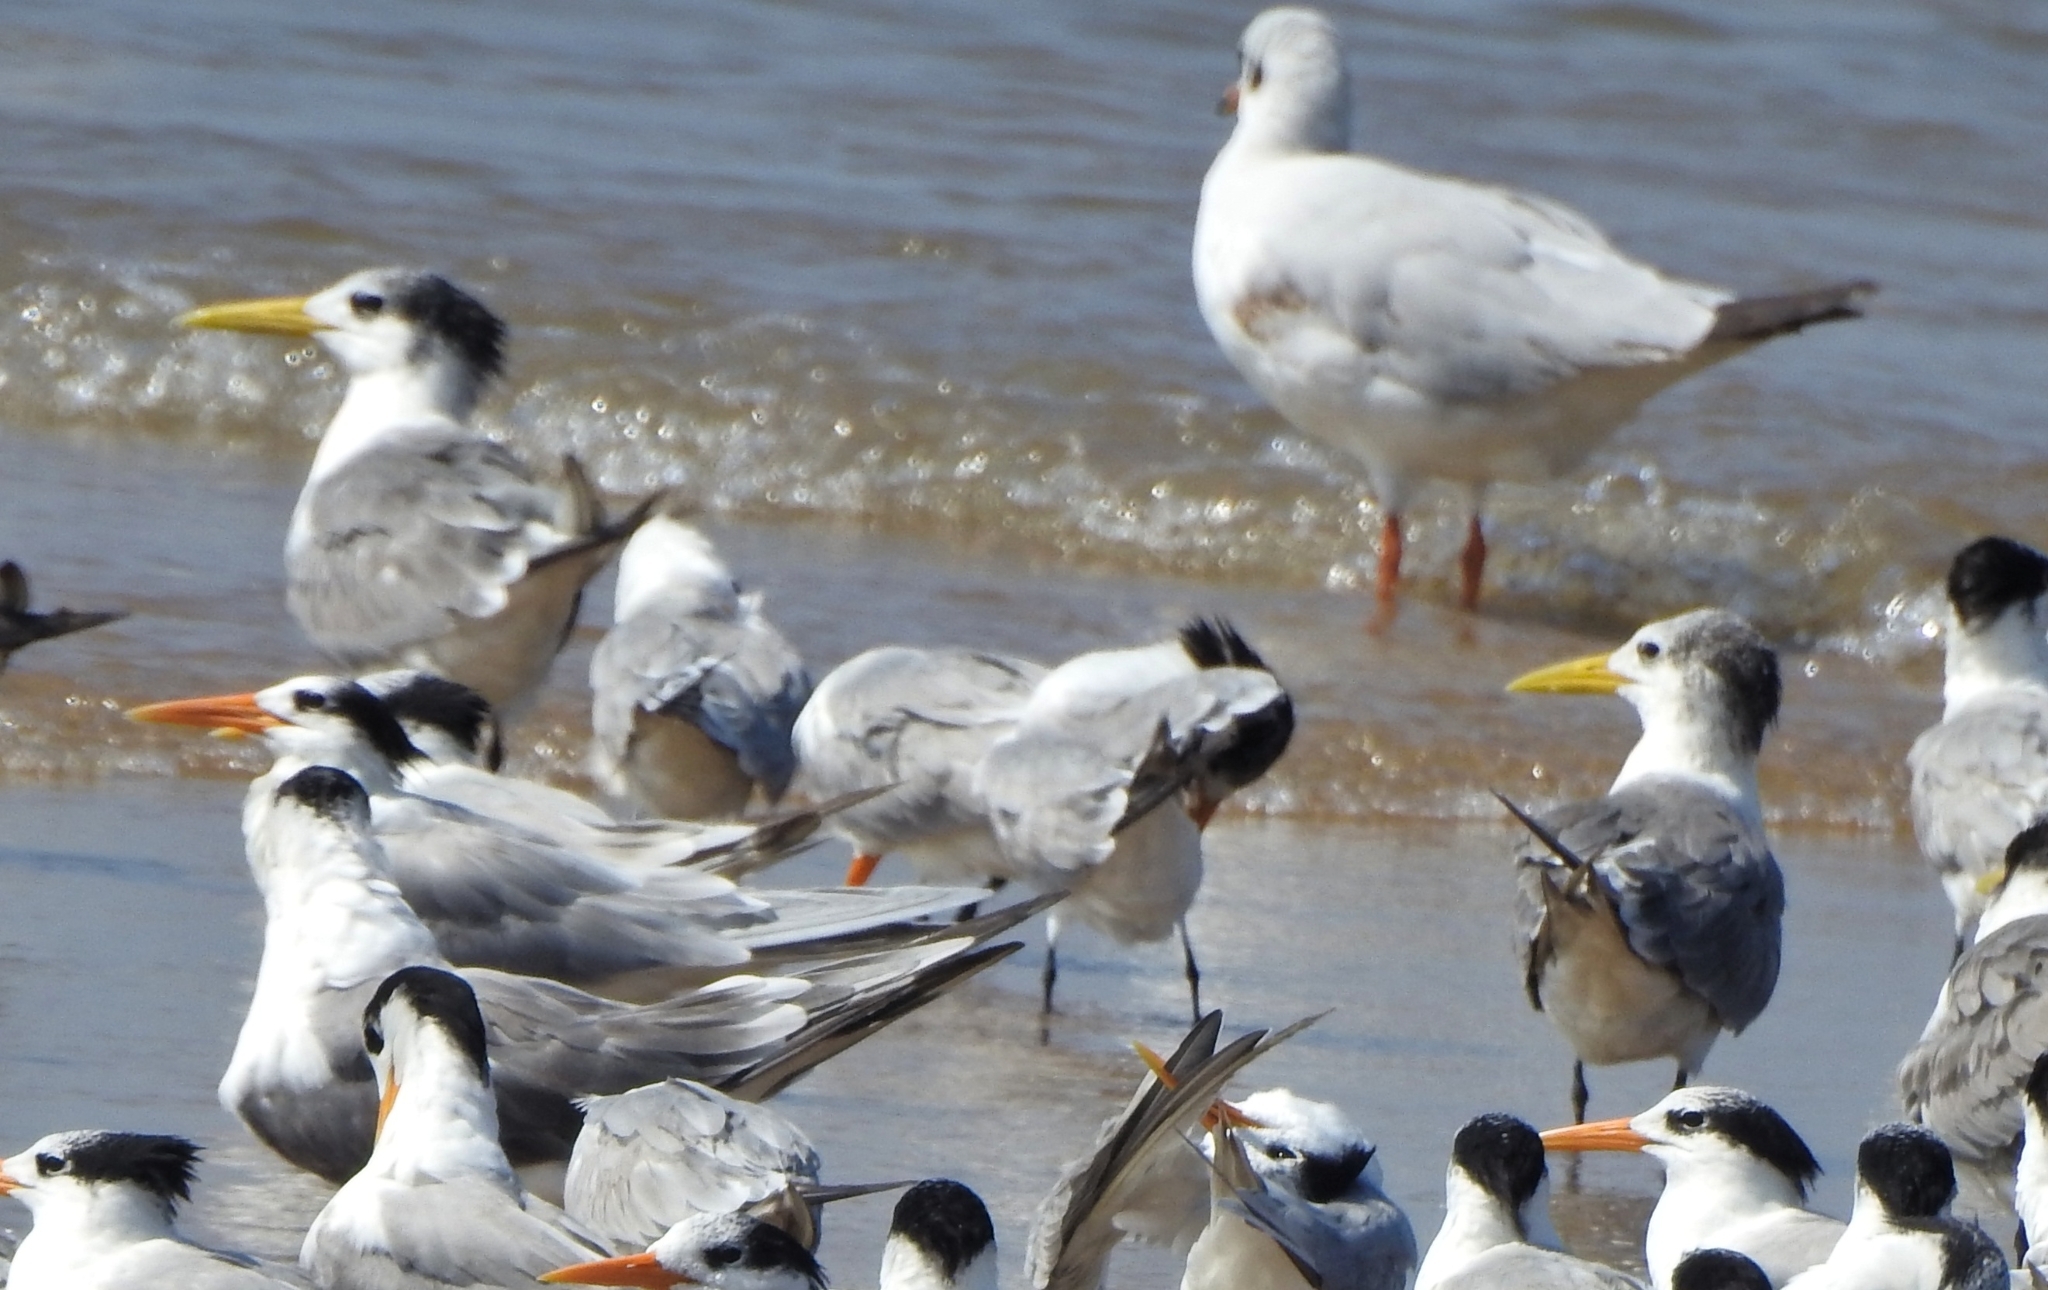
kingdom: Animalia
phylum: Chordata
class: Aves
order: Charadriiformes
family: Laridae
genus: Thalasseus
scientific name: Thalasseus bergii
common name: Greater crested tern
